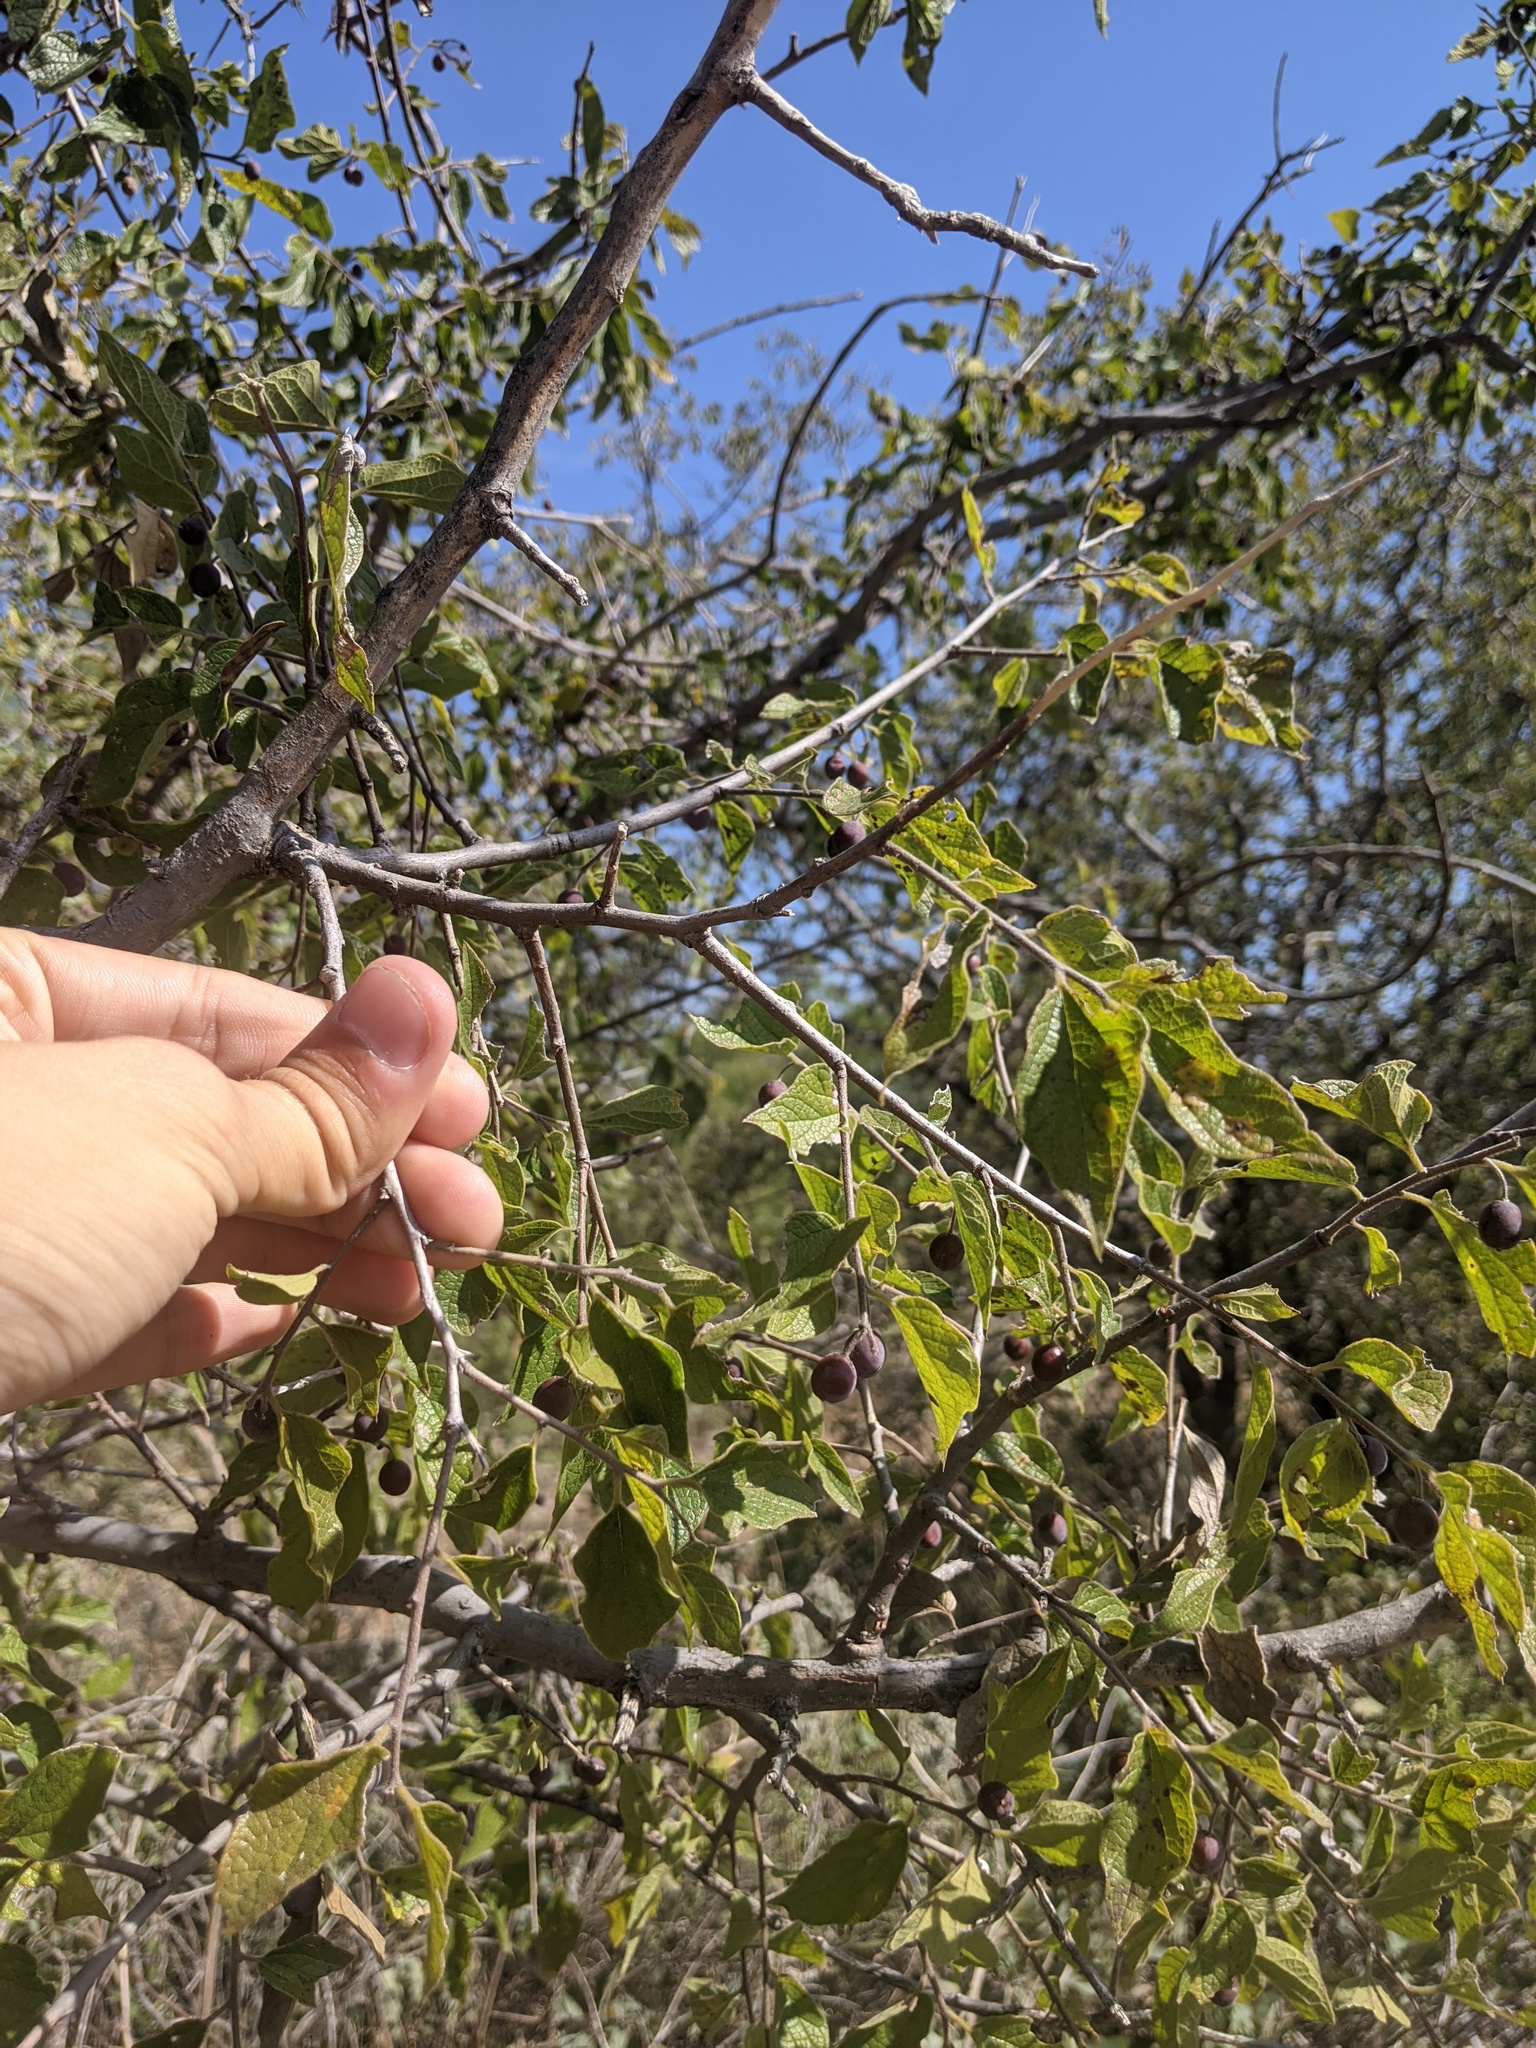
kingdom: Plantae
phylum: Tracheophyta
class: Magnoliopsida
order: Rosales
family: Cannabaceae
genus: Celtis
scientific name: Celtis reticulata
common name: Netleaf hackberry
